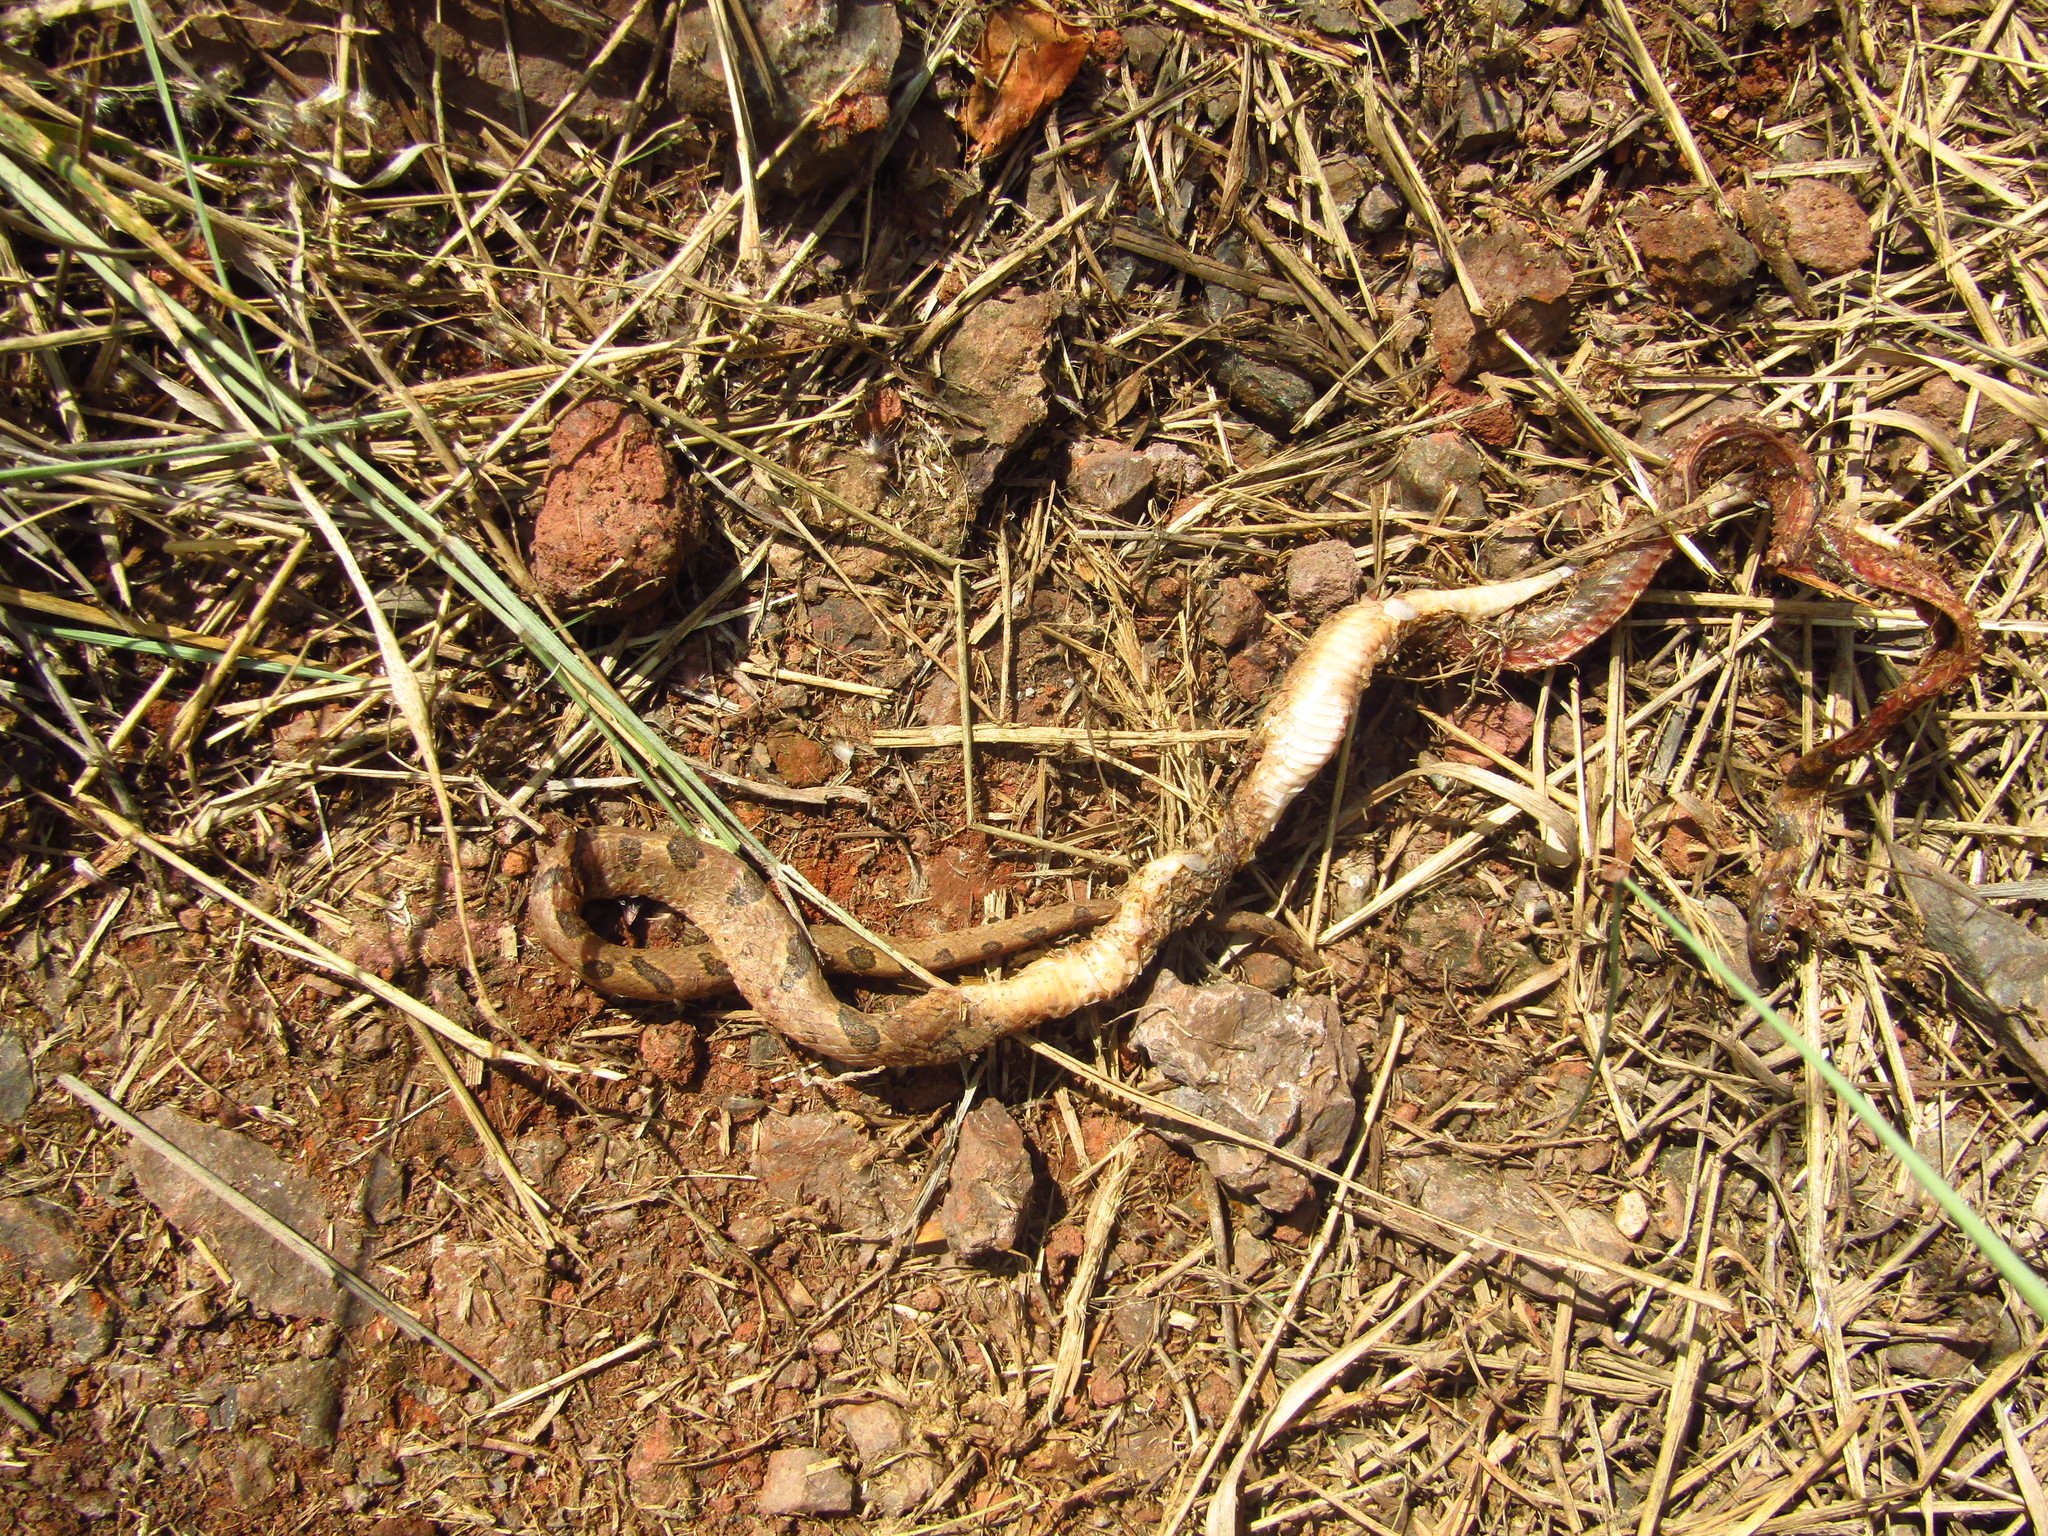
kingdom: Animalia
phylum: Chordata
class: Squamata
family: Colubridae
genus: Leptodeira
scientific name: Leptodeira septentrionalis
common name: Northern cat-eyed snake
